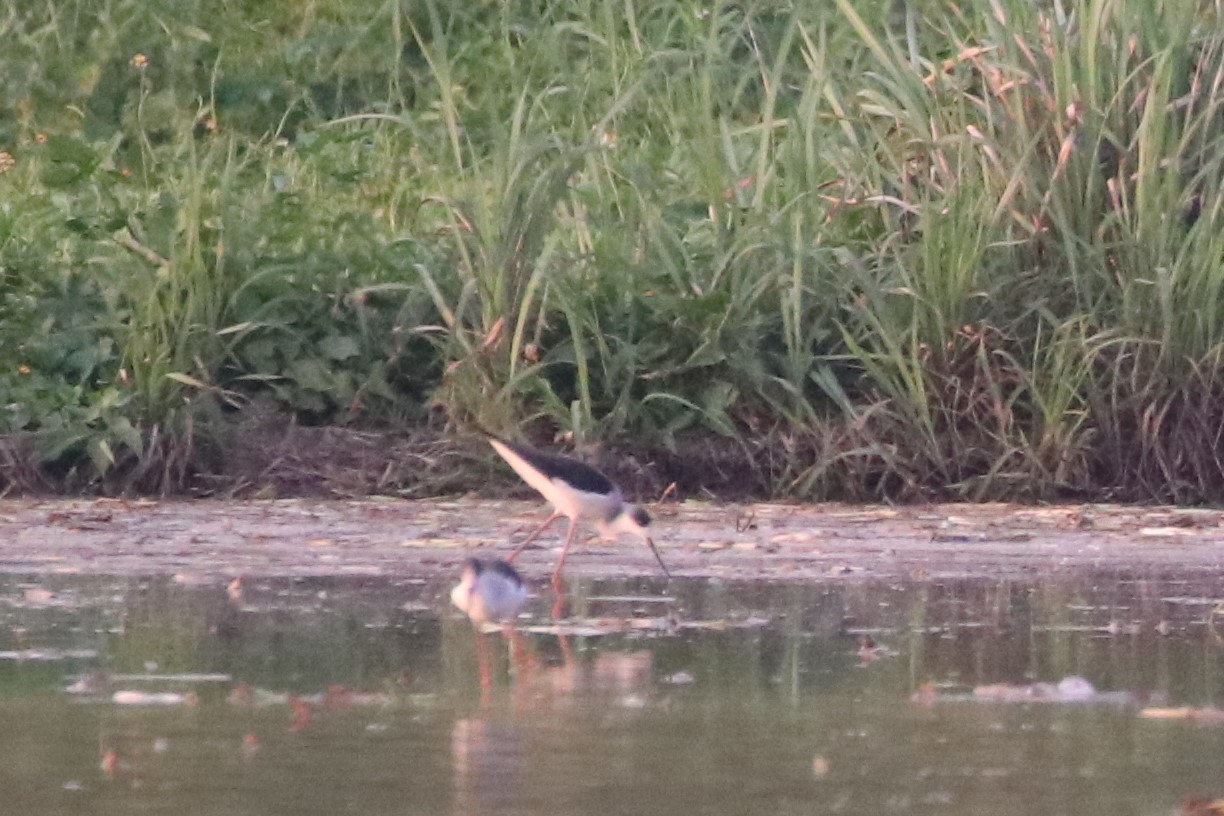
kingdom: Animalia
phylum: Chordata
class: Aves
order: Charadriiformes
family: Recurvirostridae
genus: Himantopus
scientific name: Himantopus himantopus
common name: Black-winged stilt
